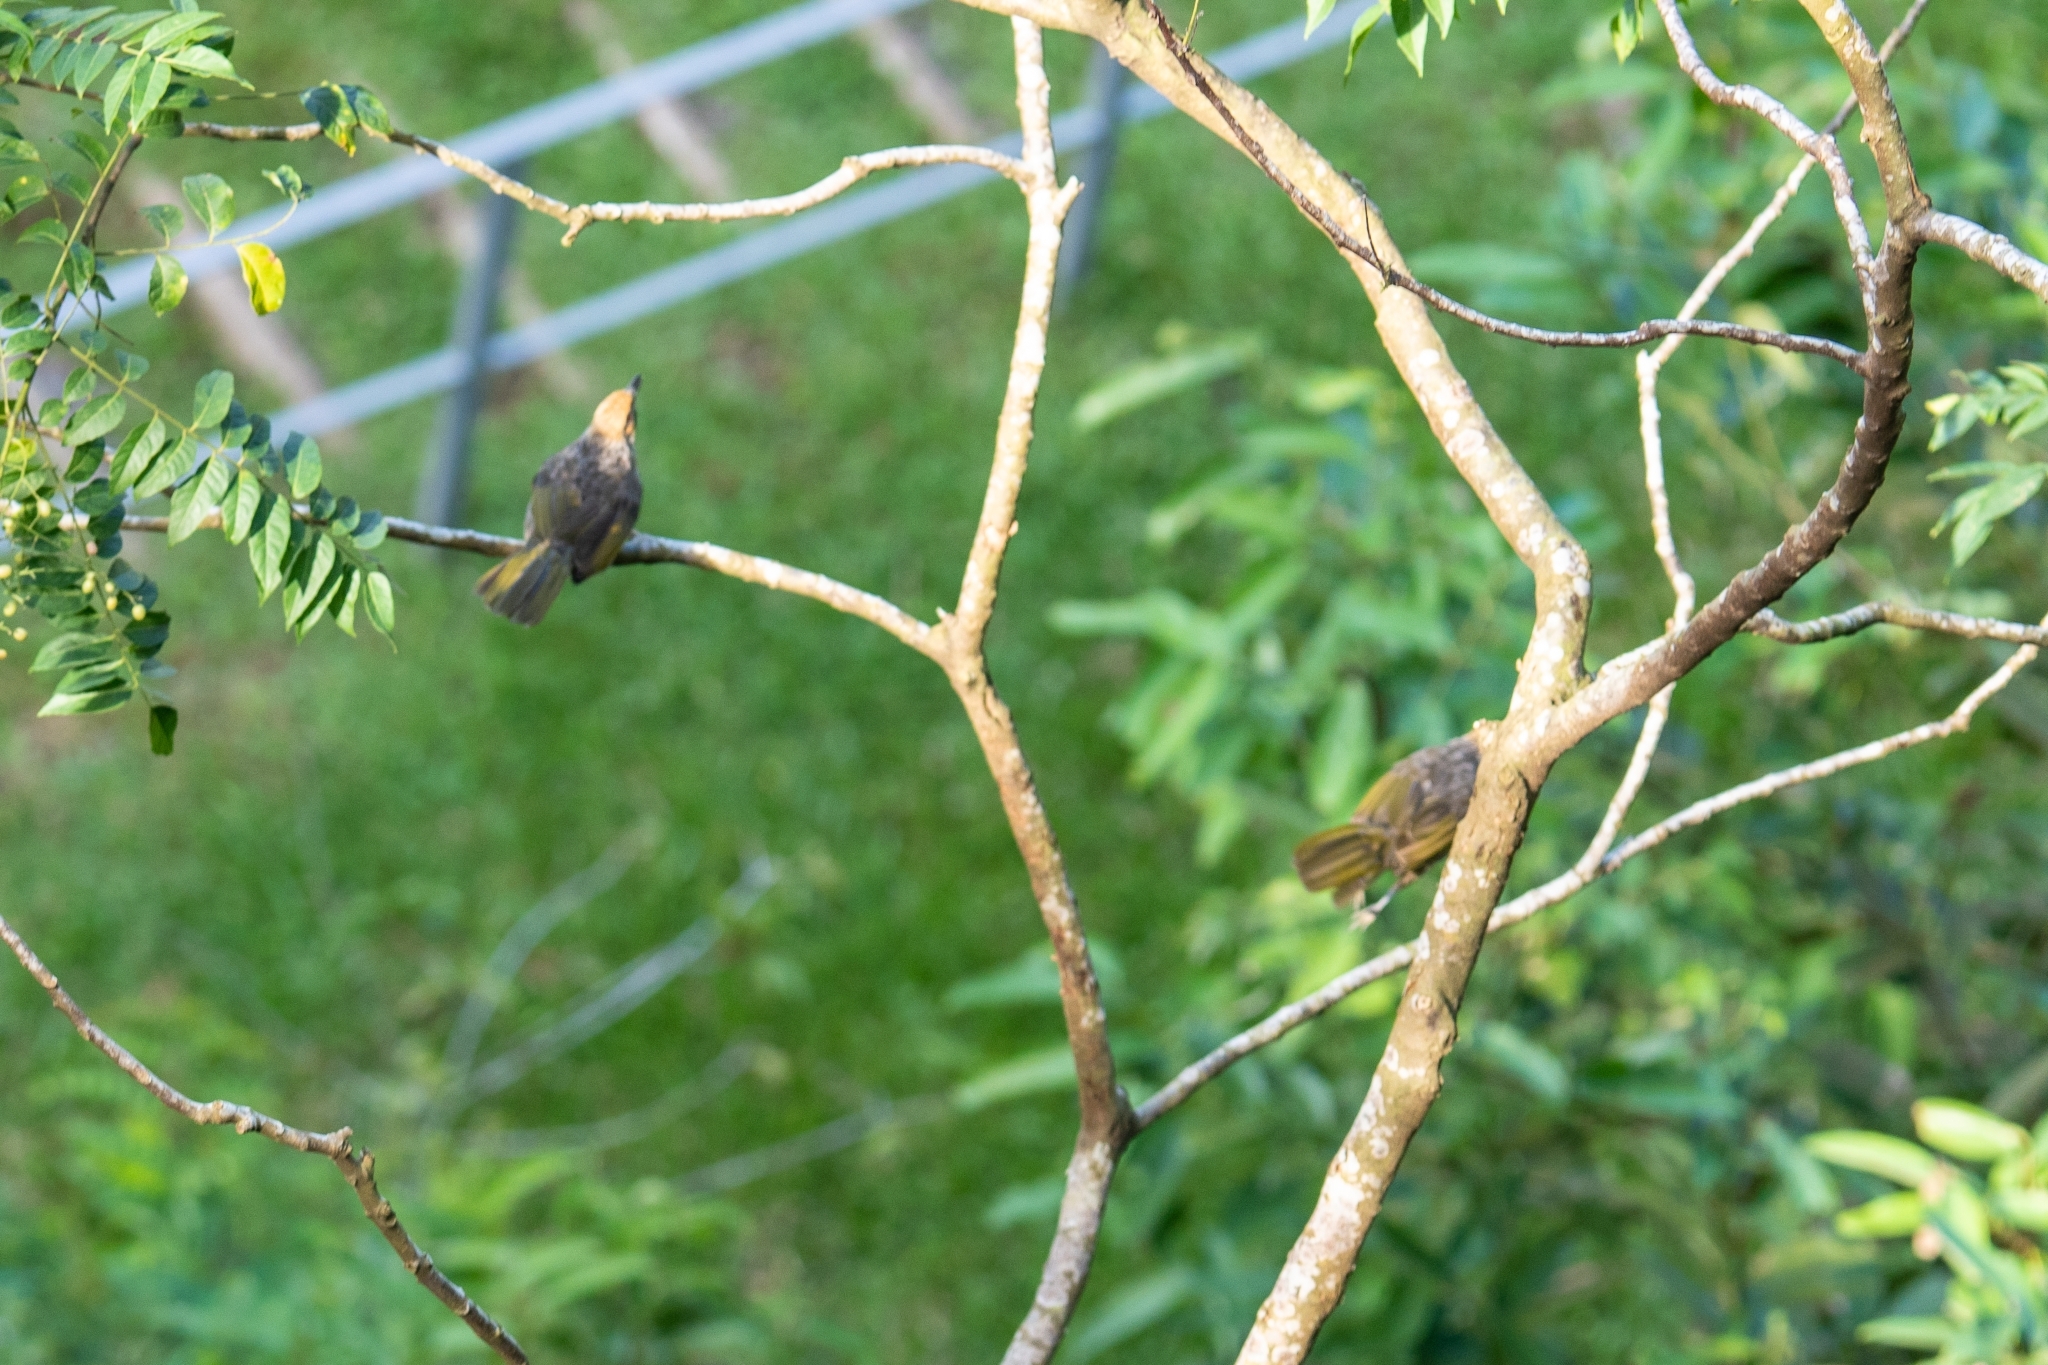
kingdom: Animalia
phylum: Chordata
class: Aves
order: Passeriformes
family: Pycnonotidae
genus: Pycnonotus
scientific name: Pycnonotus zeylanicus
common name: Straw-headed bulbul
